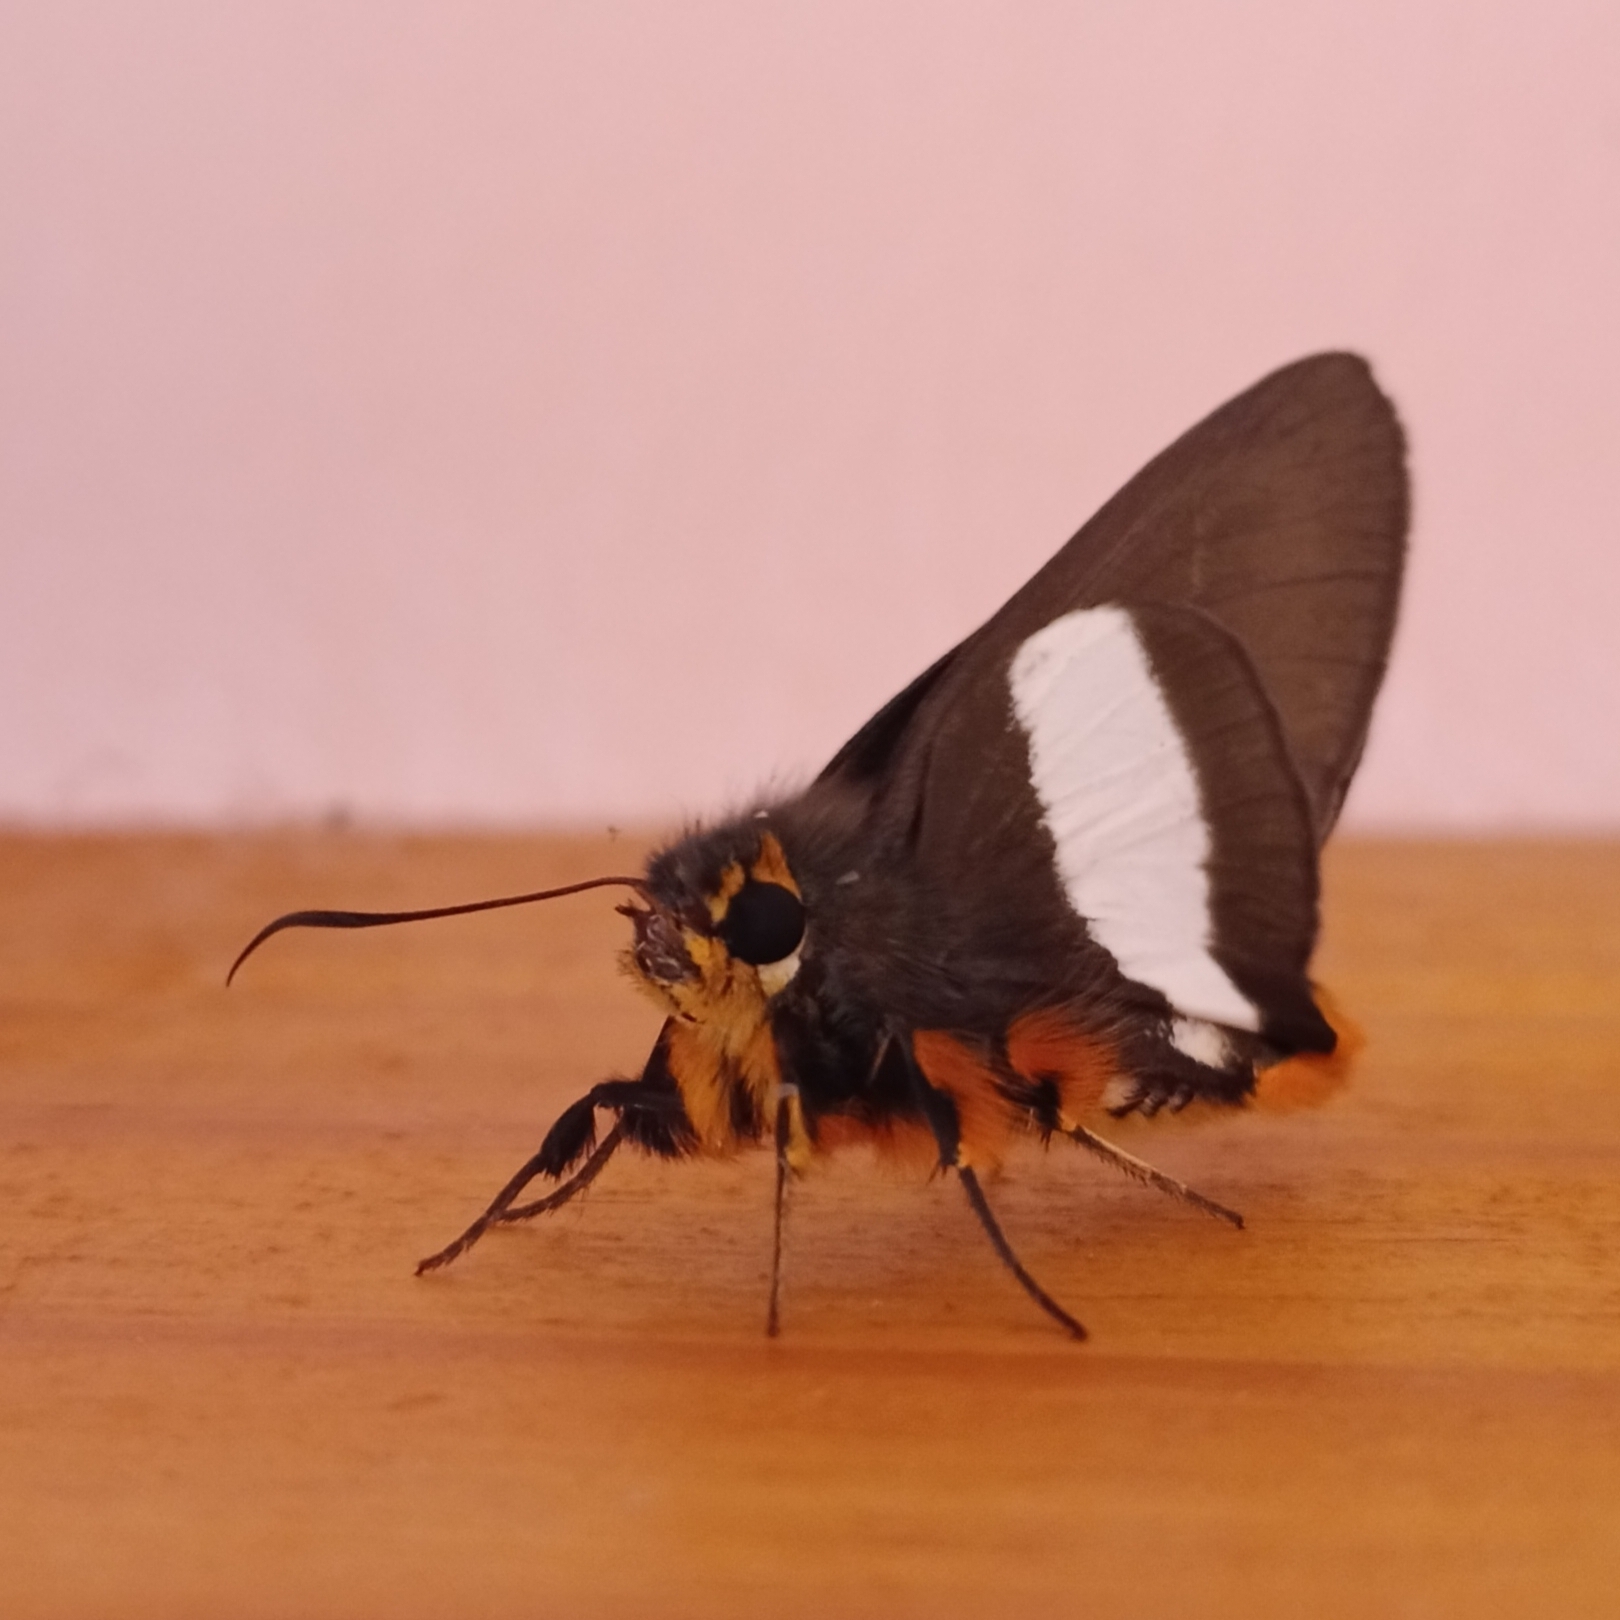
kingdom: Animalia
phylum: Arthropoda
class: Insecta
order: Lepidoptera
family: Hesperiidae
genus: Coeliades
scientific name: Coeliades forestan
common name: Striped policeman
